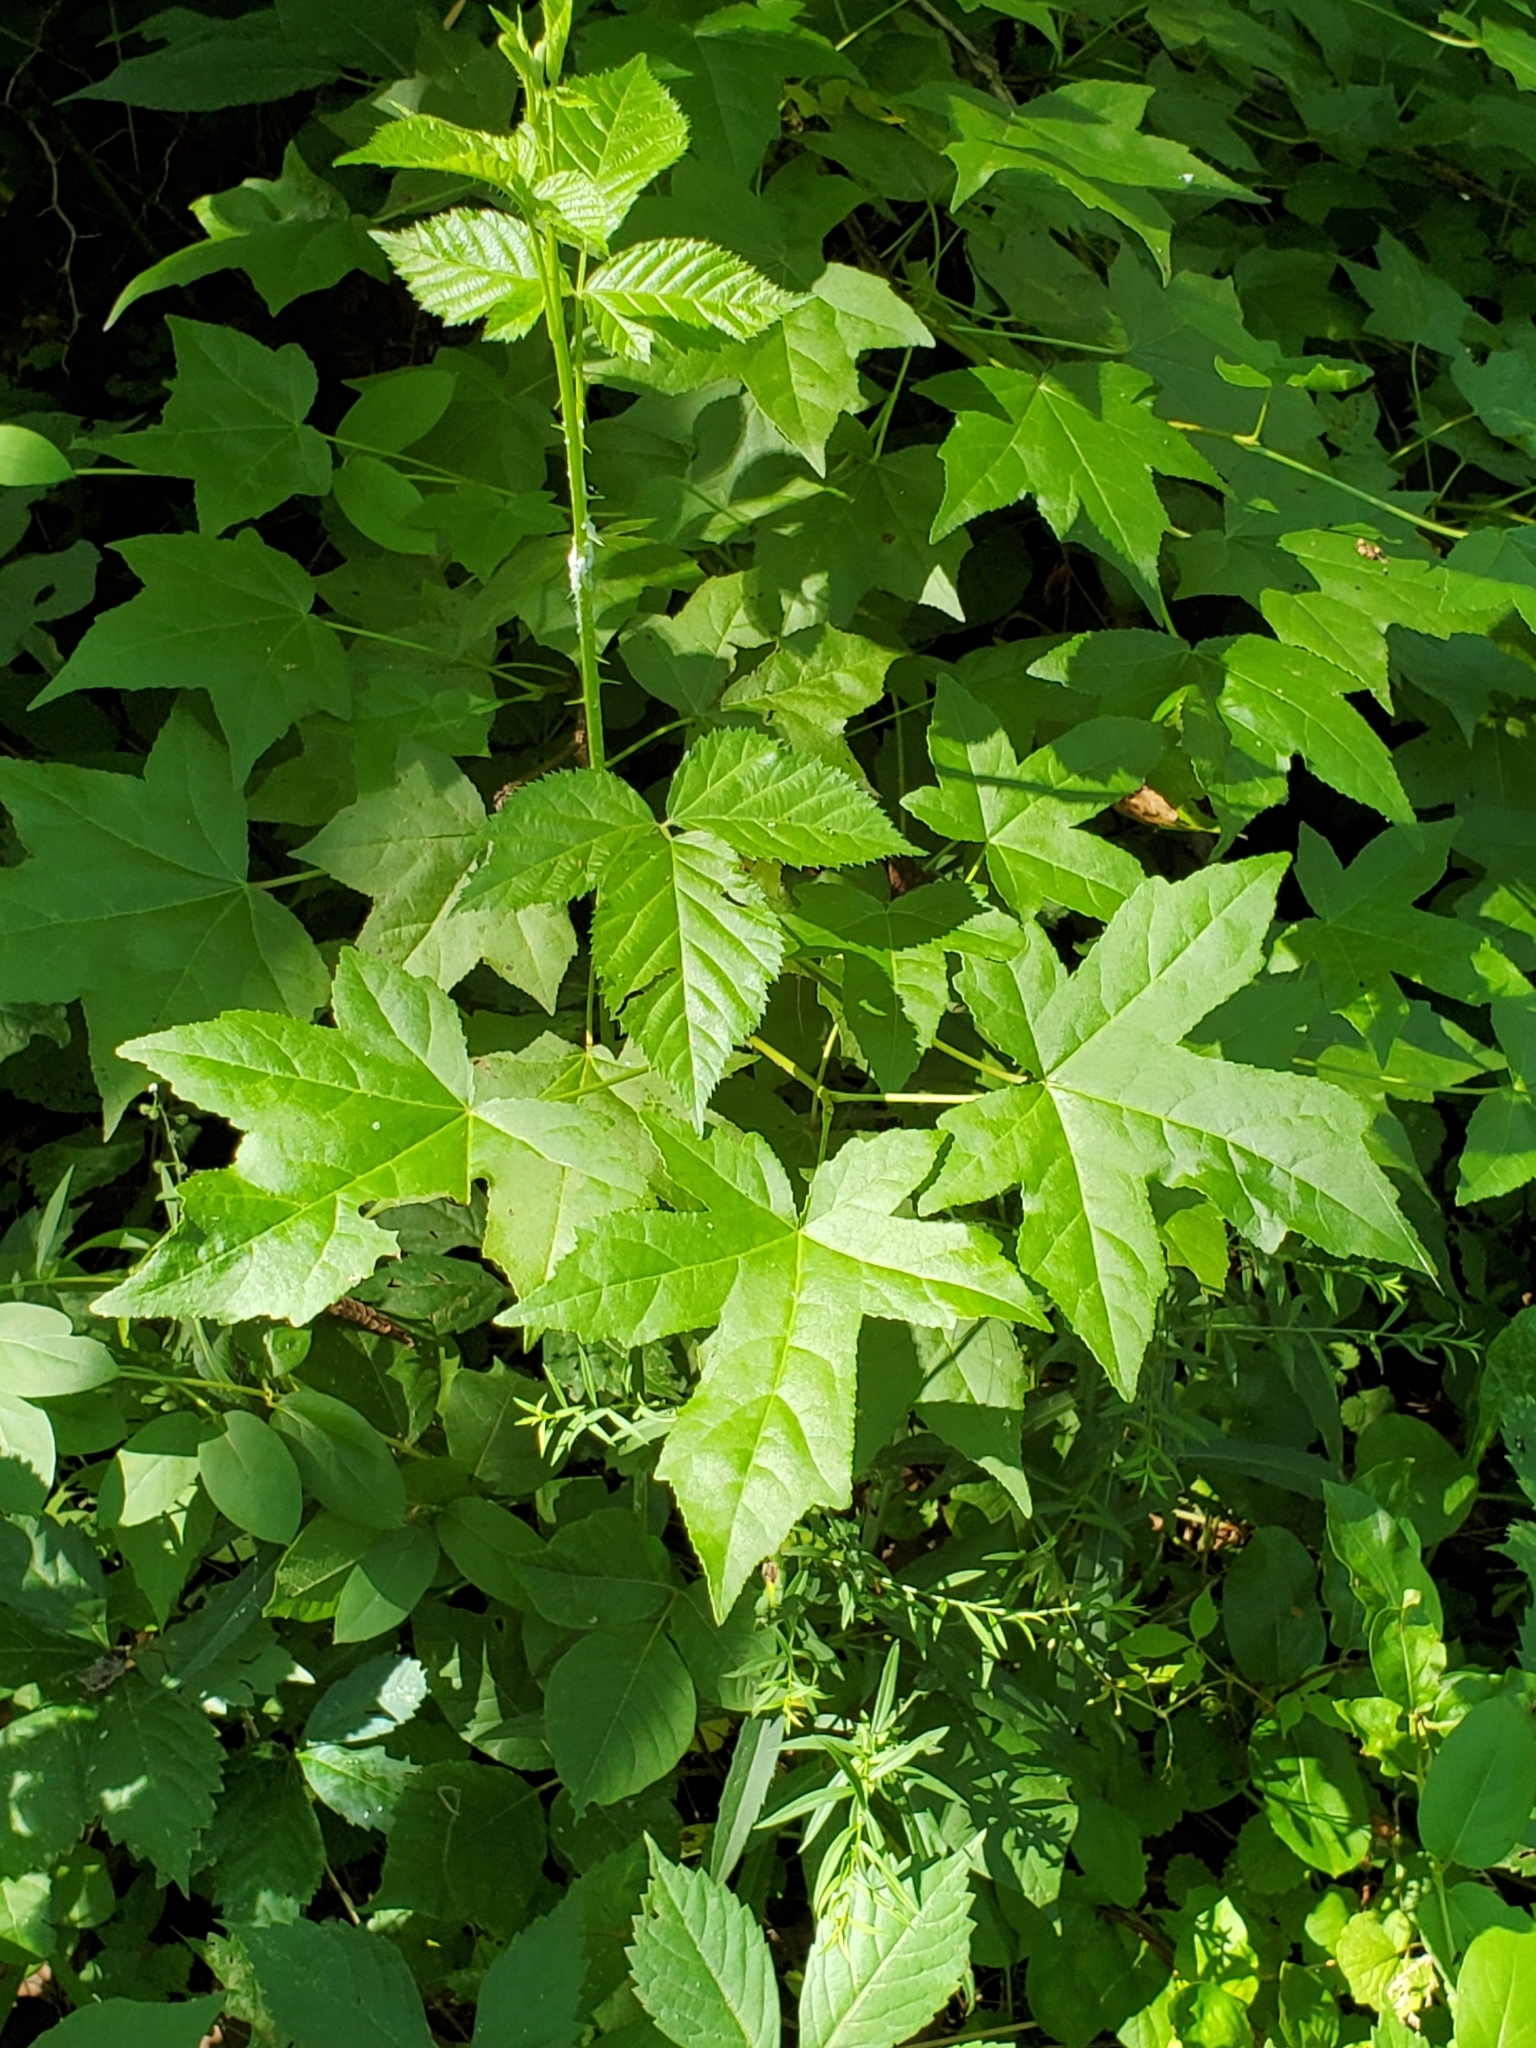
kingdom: Plantae
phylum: Tracheophyta
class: Magnoliopsida
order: Saxifragales
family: Altingiaceae
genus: Liquidambar
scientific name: Liquidambar styraciflua
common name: Sweet gum
